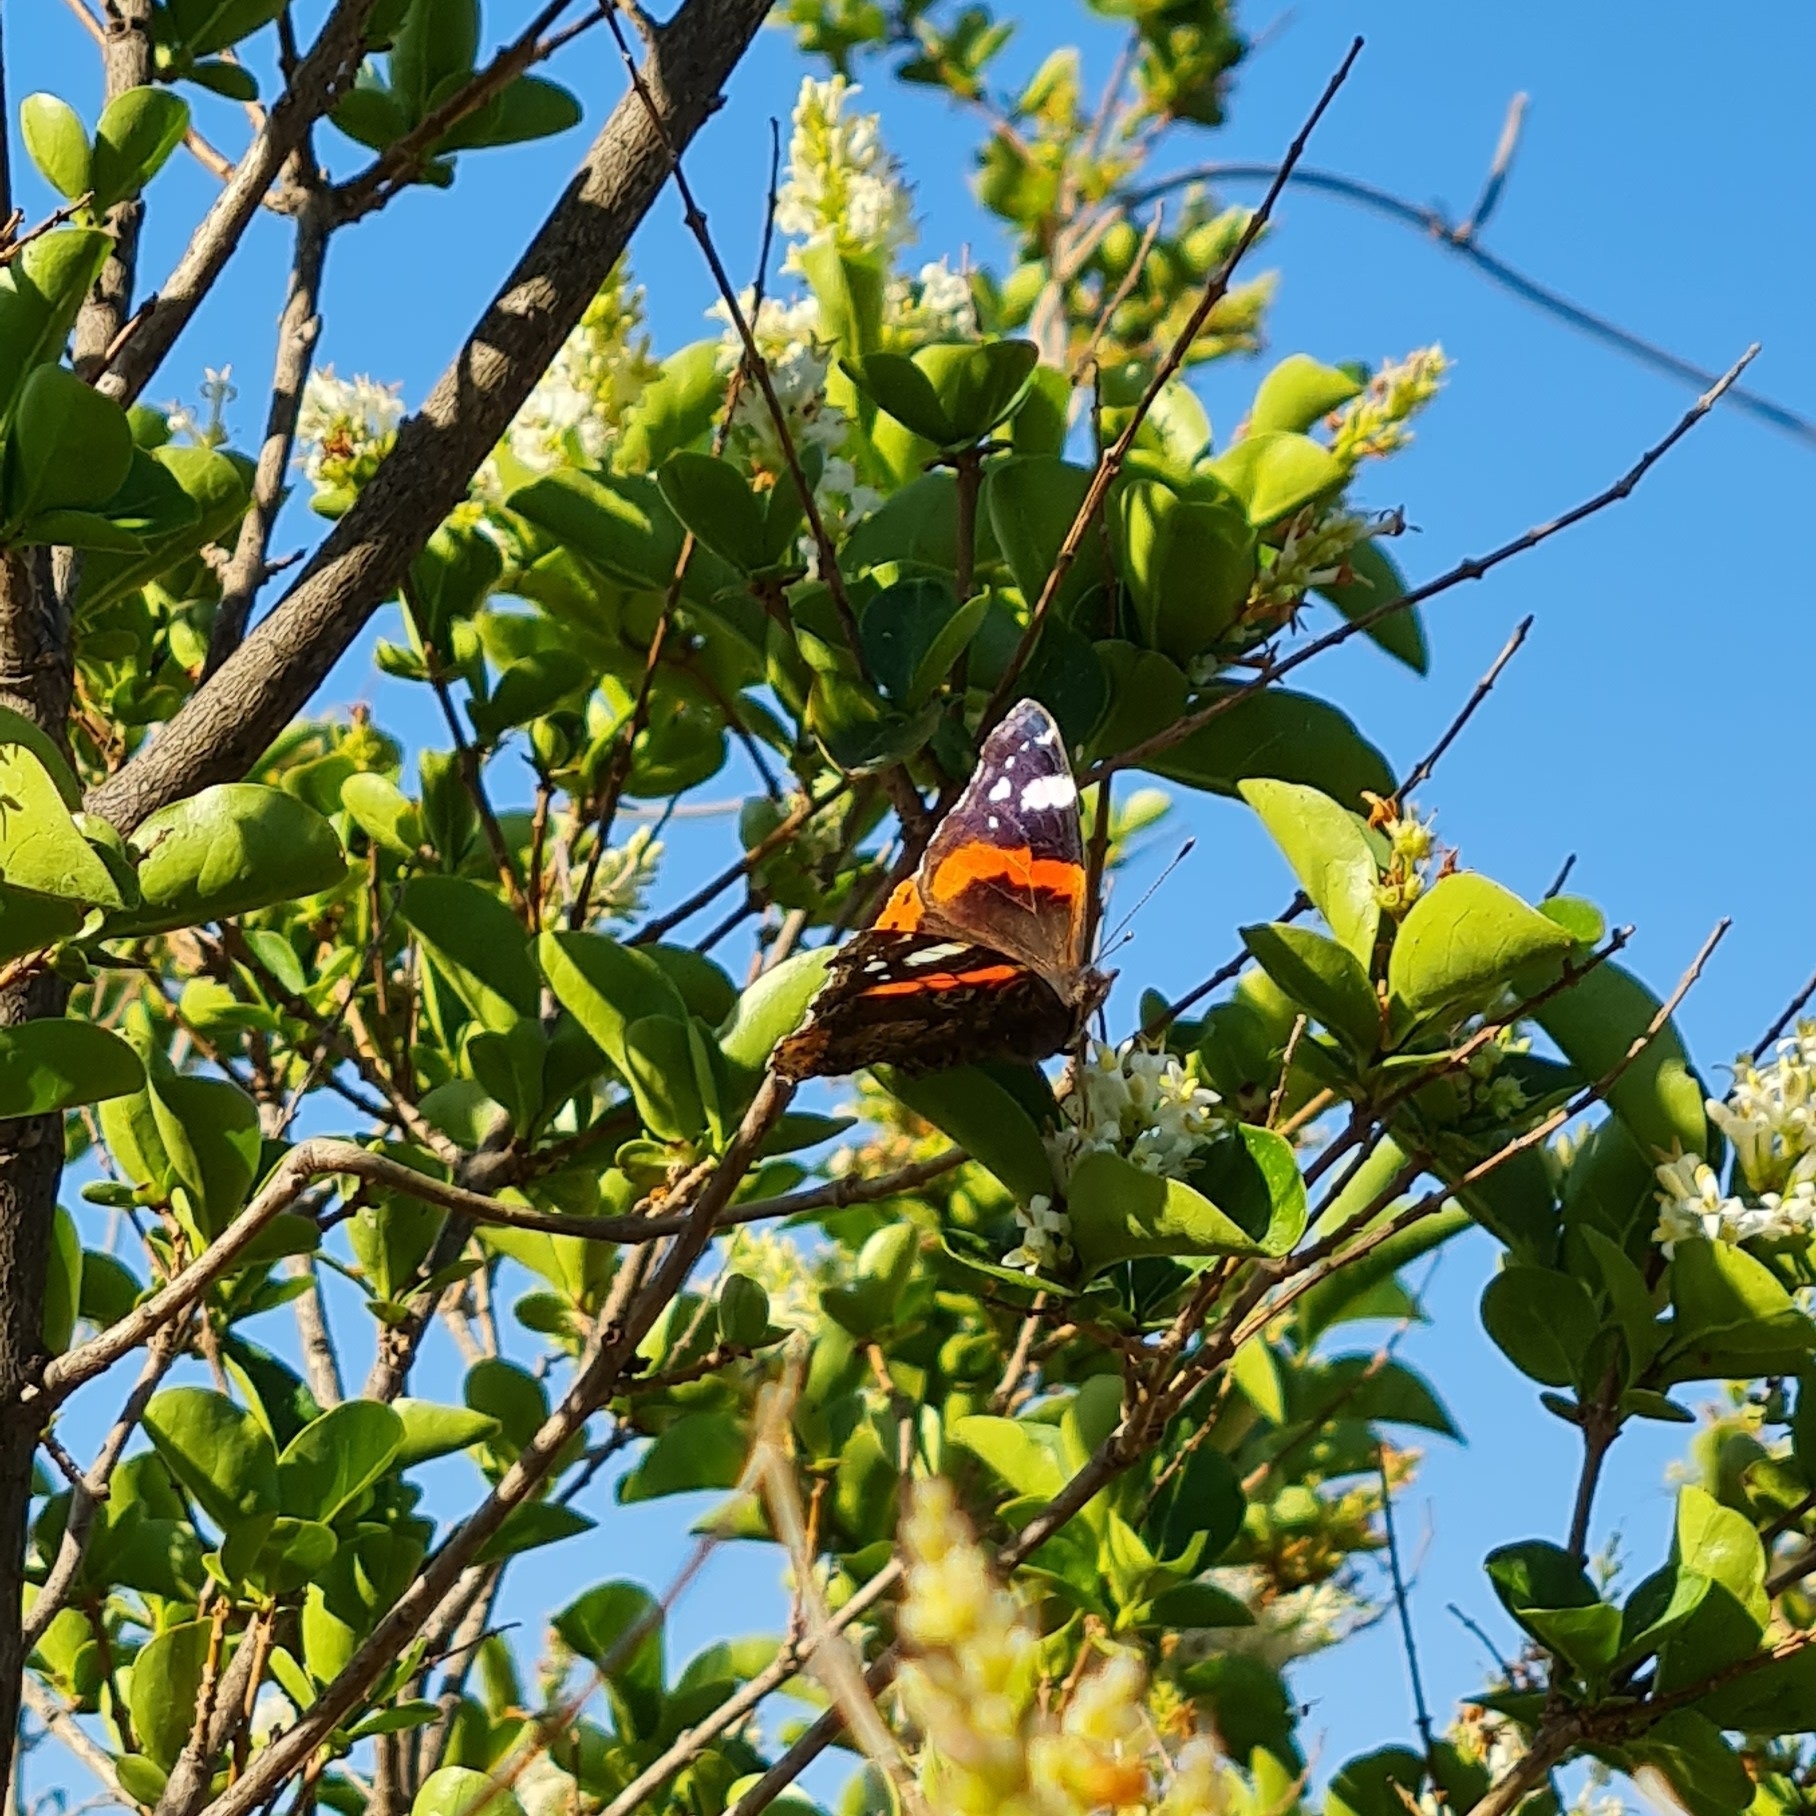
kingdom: Animalia
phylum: Arthropoda
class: Insecta
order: Lepidoptera
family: Nymphalidae
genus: Vanessa
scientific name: Vanessa atalanta
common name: Red admiral
